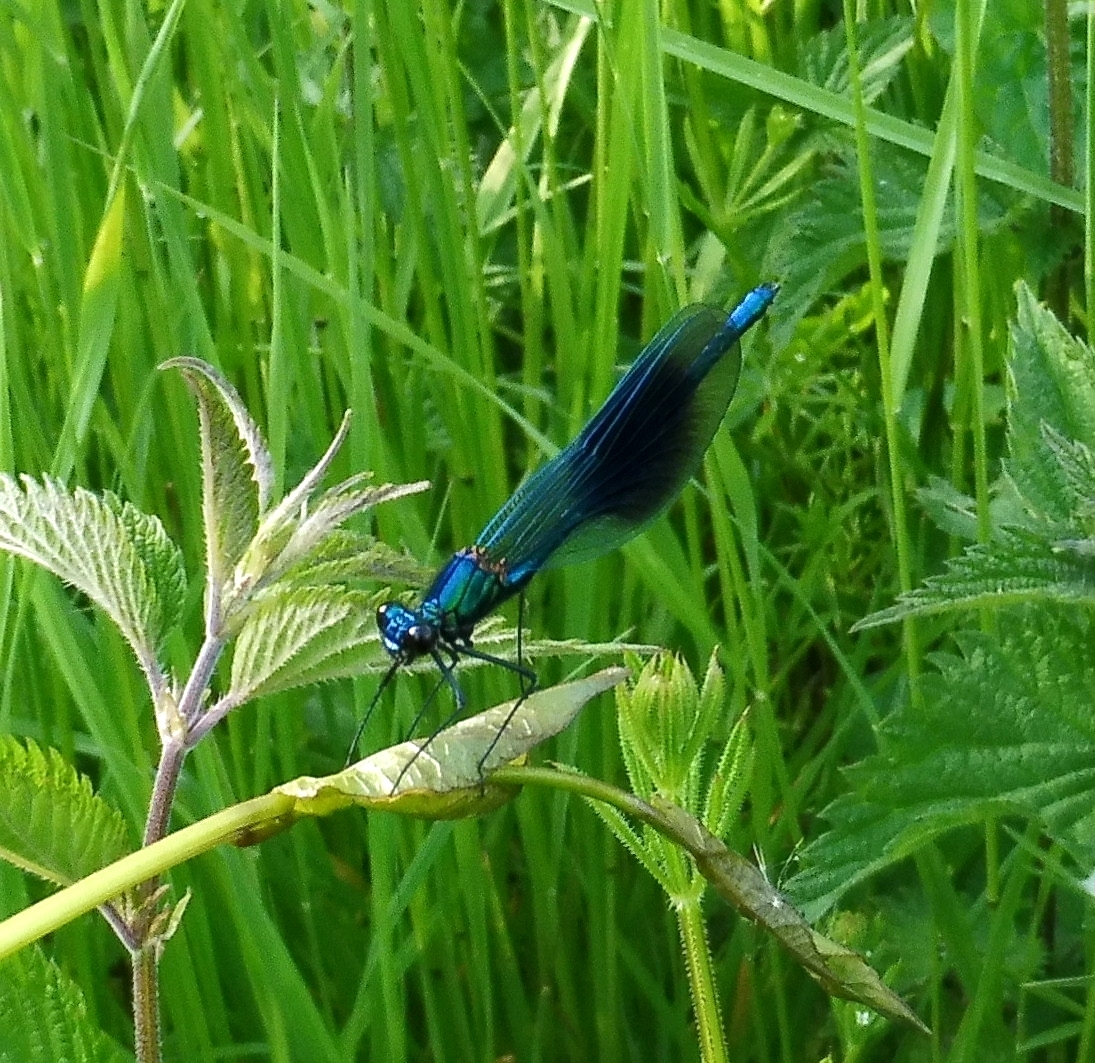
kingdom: Animalia
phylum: Arthropoda
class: Insecta
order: Odonata
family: Calopterygidae
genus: Calopteryx
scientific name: Calopteryx splendens
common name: Banded demoiselle
